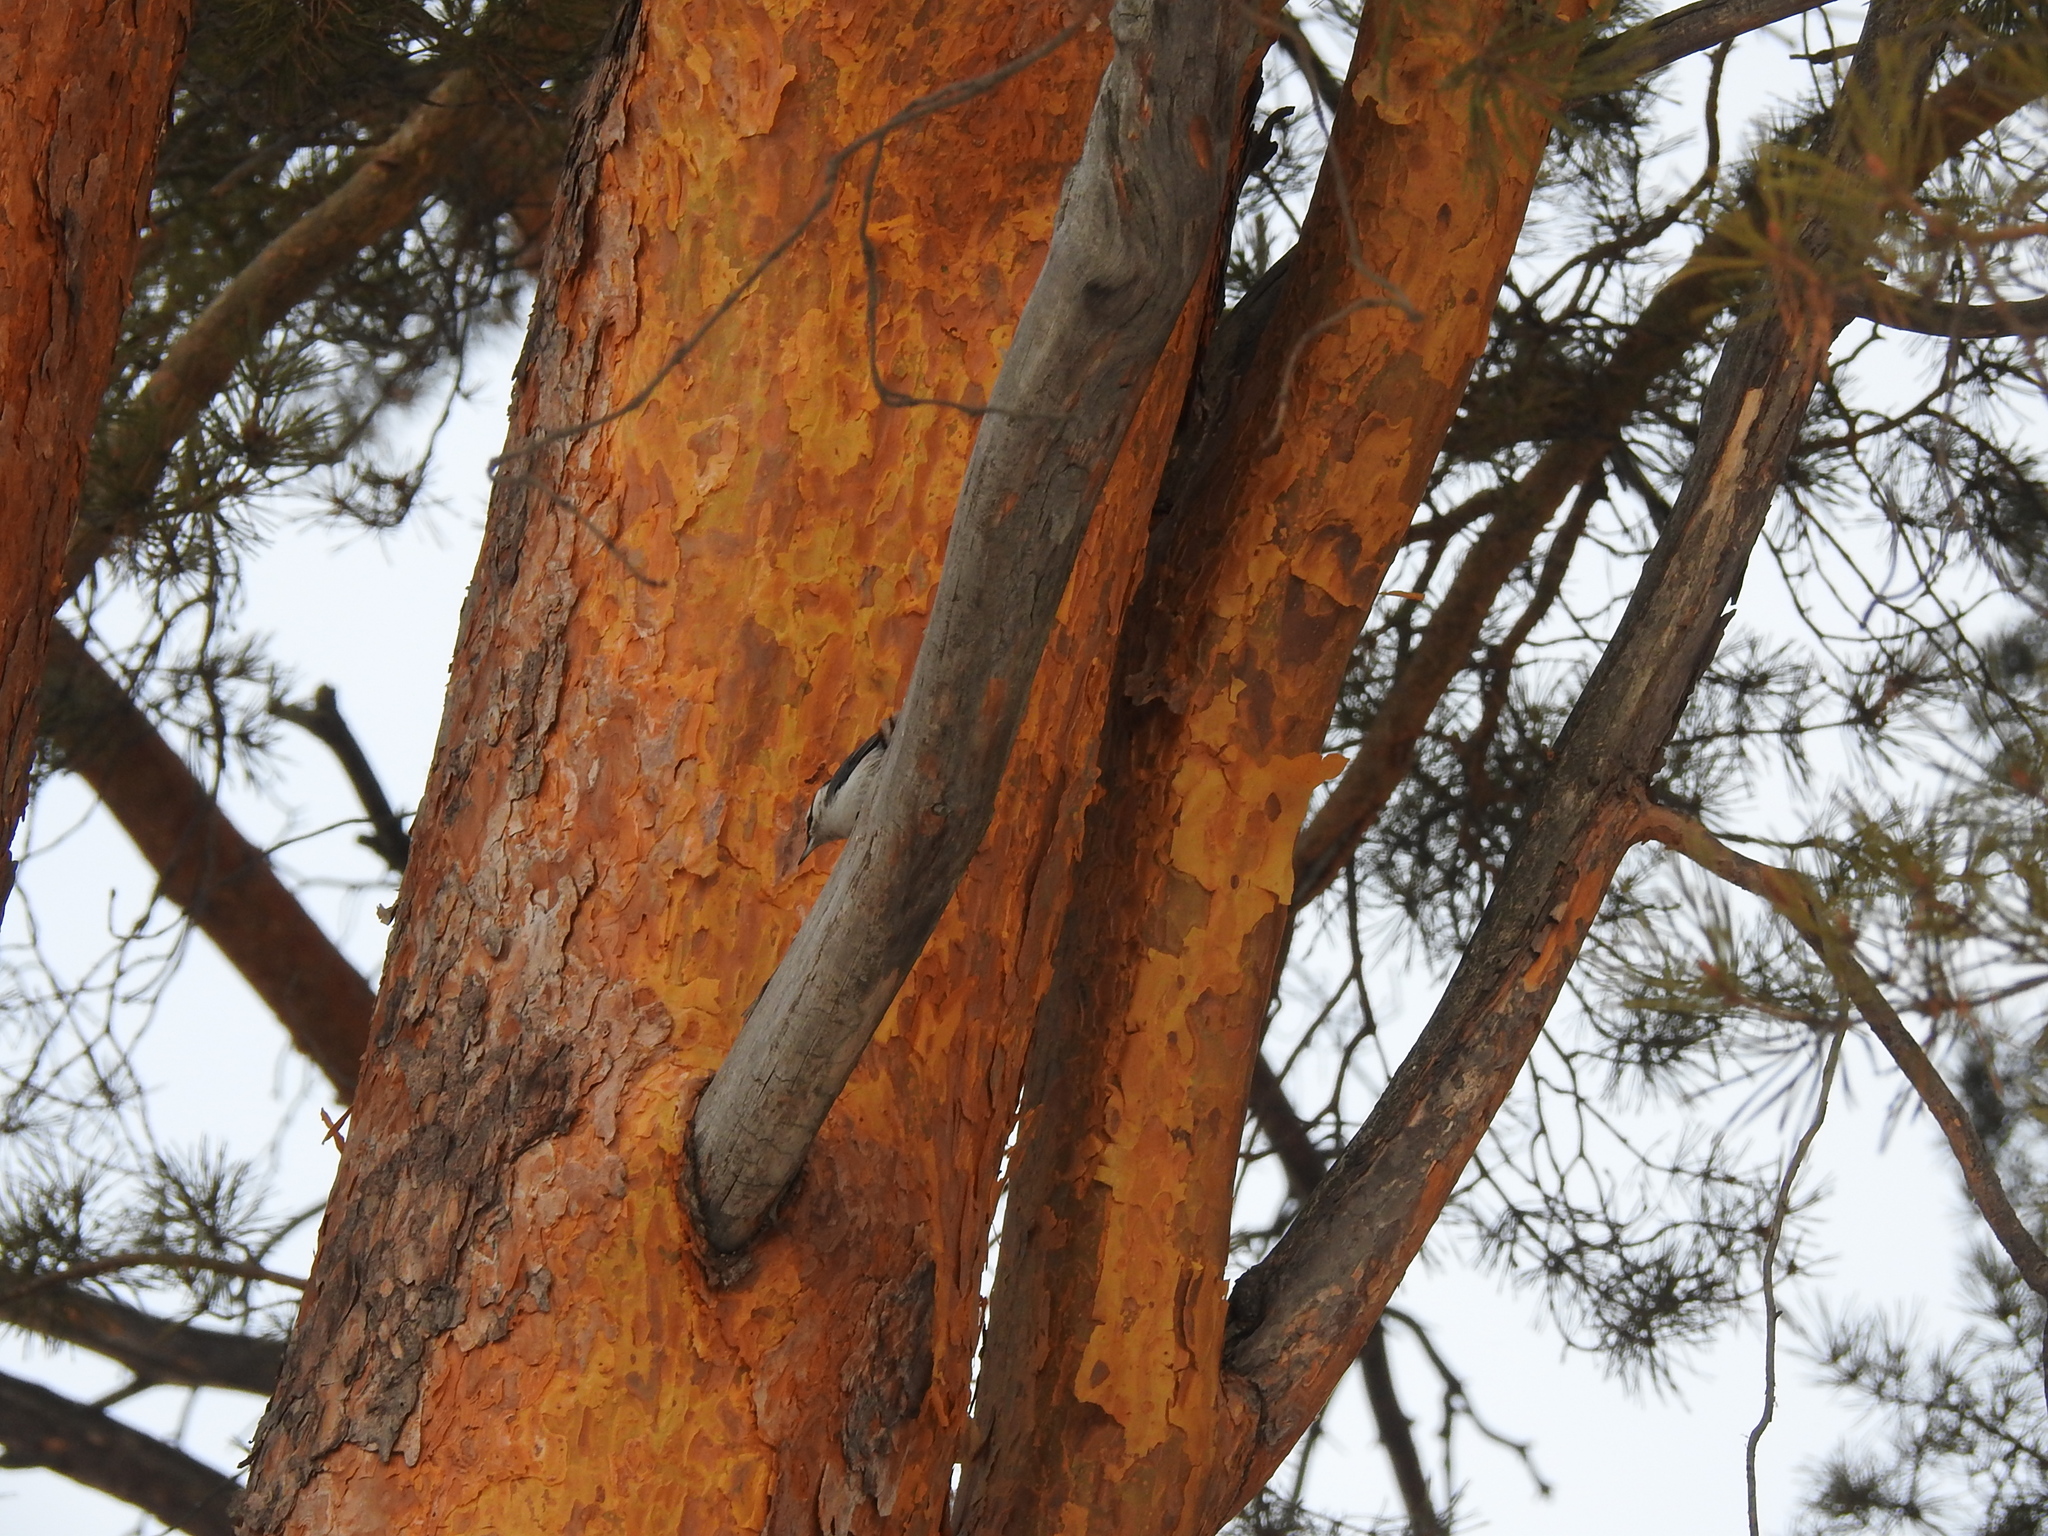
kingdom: Animalia
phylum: Chordata
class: Aves
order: Passeriformes
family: Sittidae
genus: Sitta
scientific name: Sitta europaea
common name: Eurasian nuthatch
